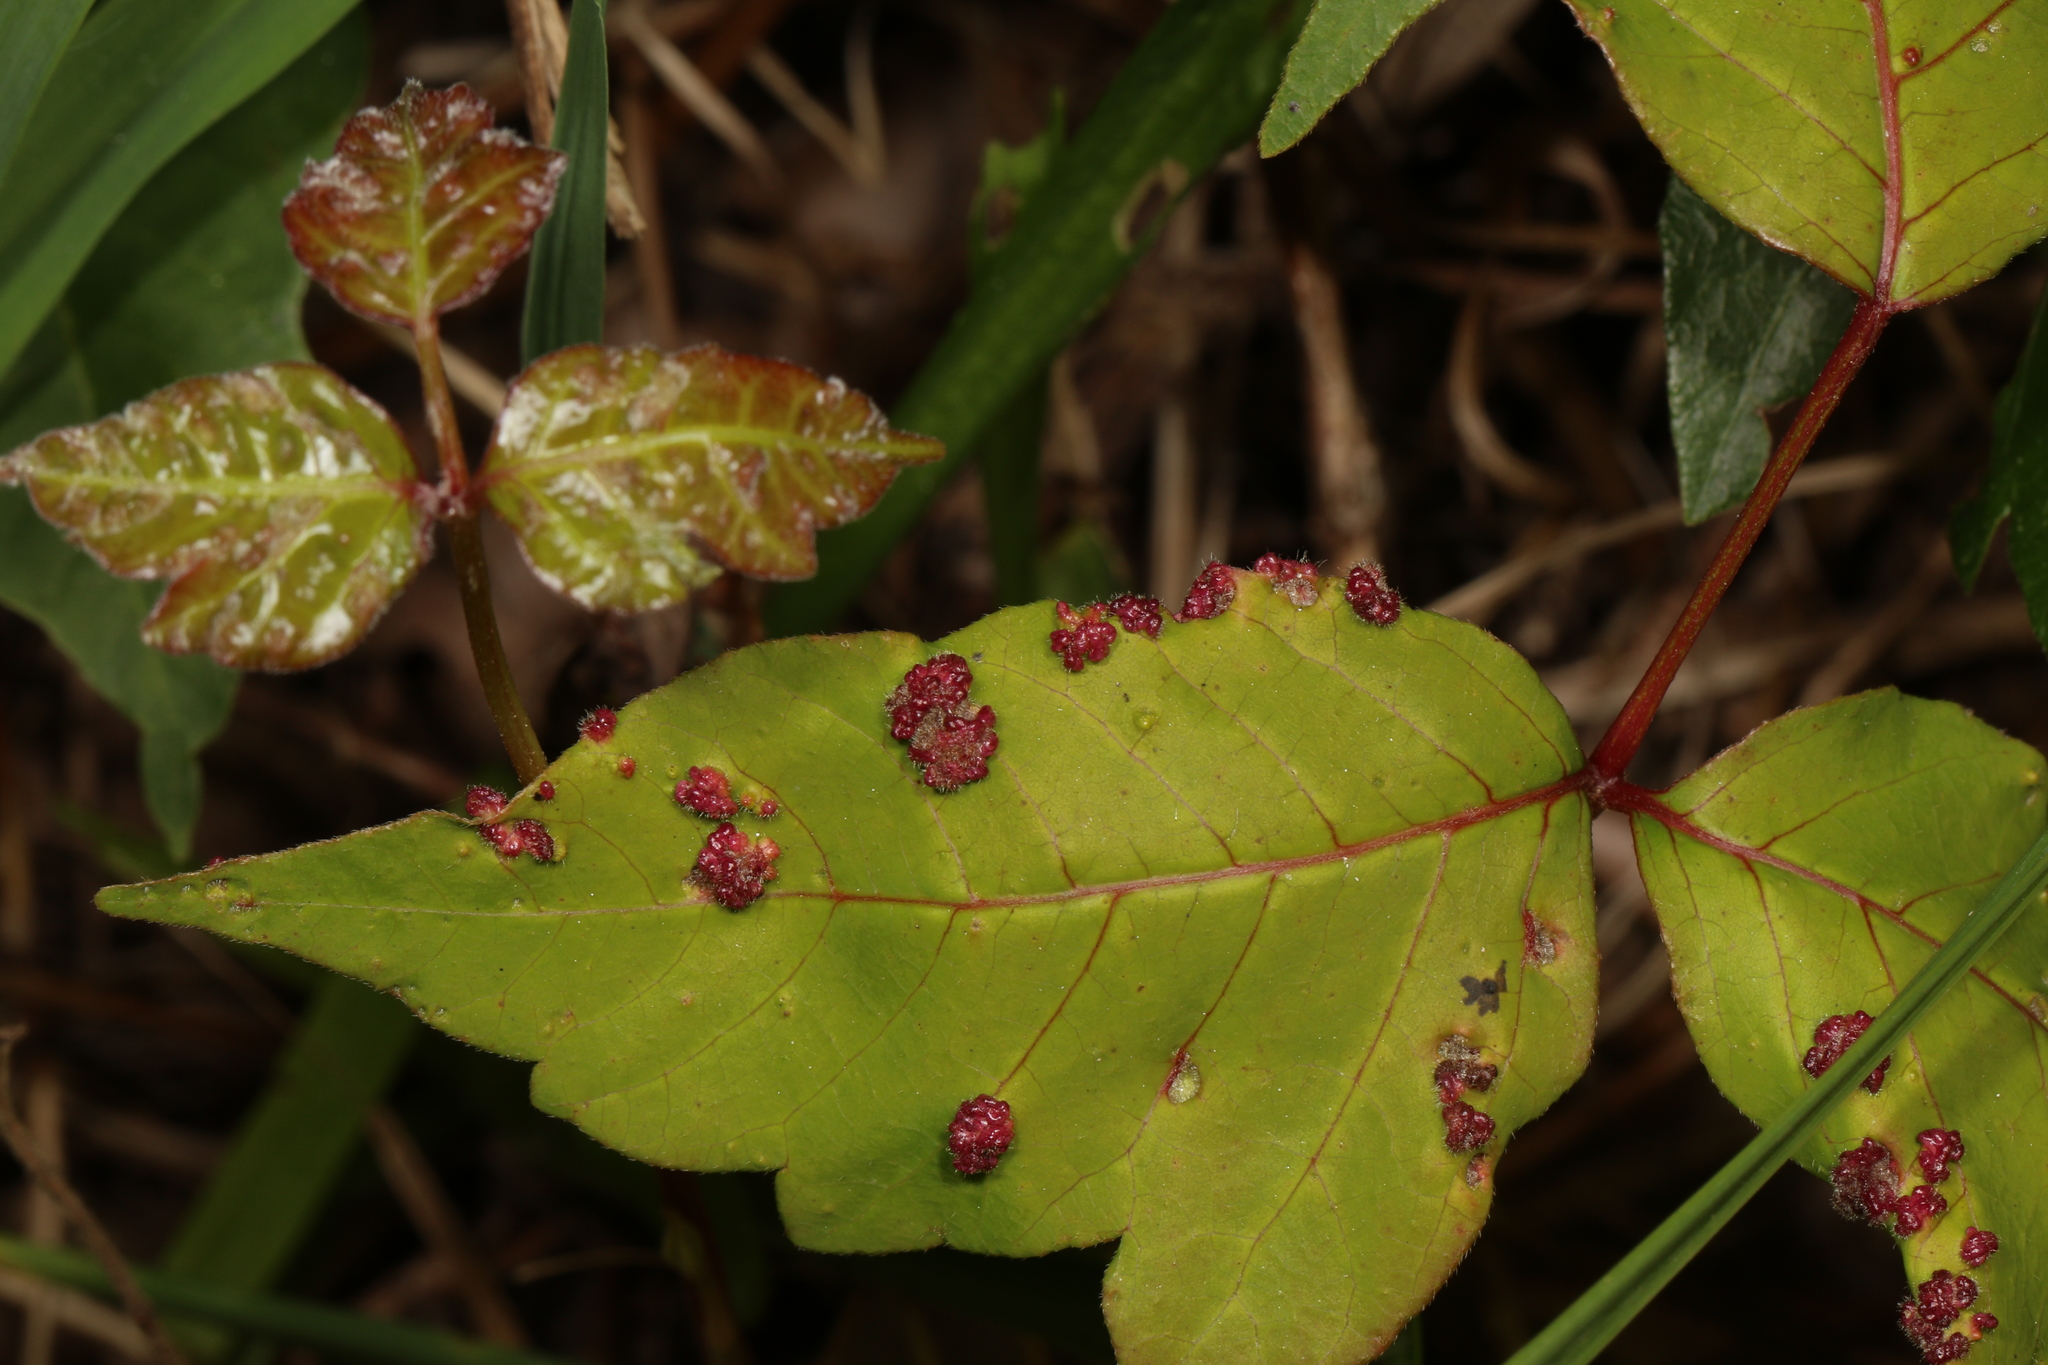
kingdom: Animalia
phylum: Arthropoda
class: Arachnida
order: Trombidiformes
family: Eriophyidae
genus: Aculops
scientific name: Aculops
